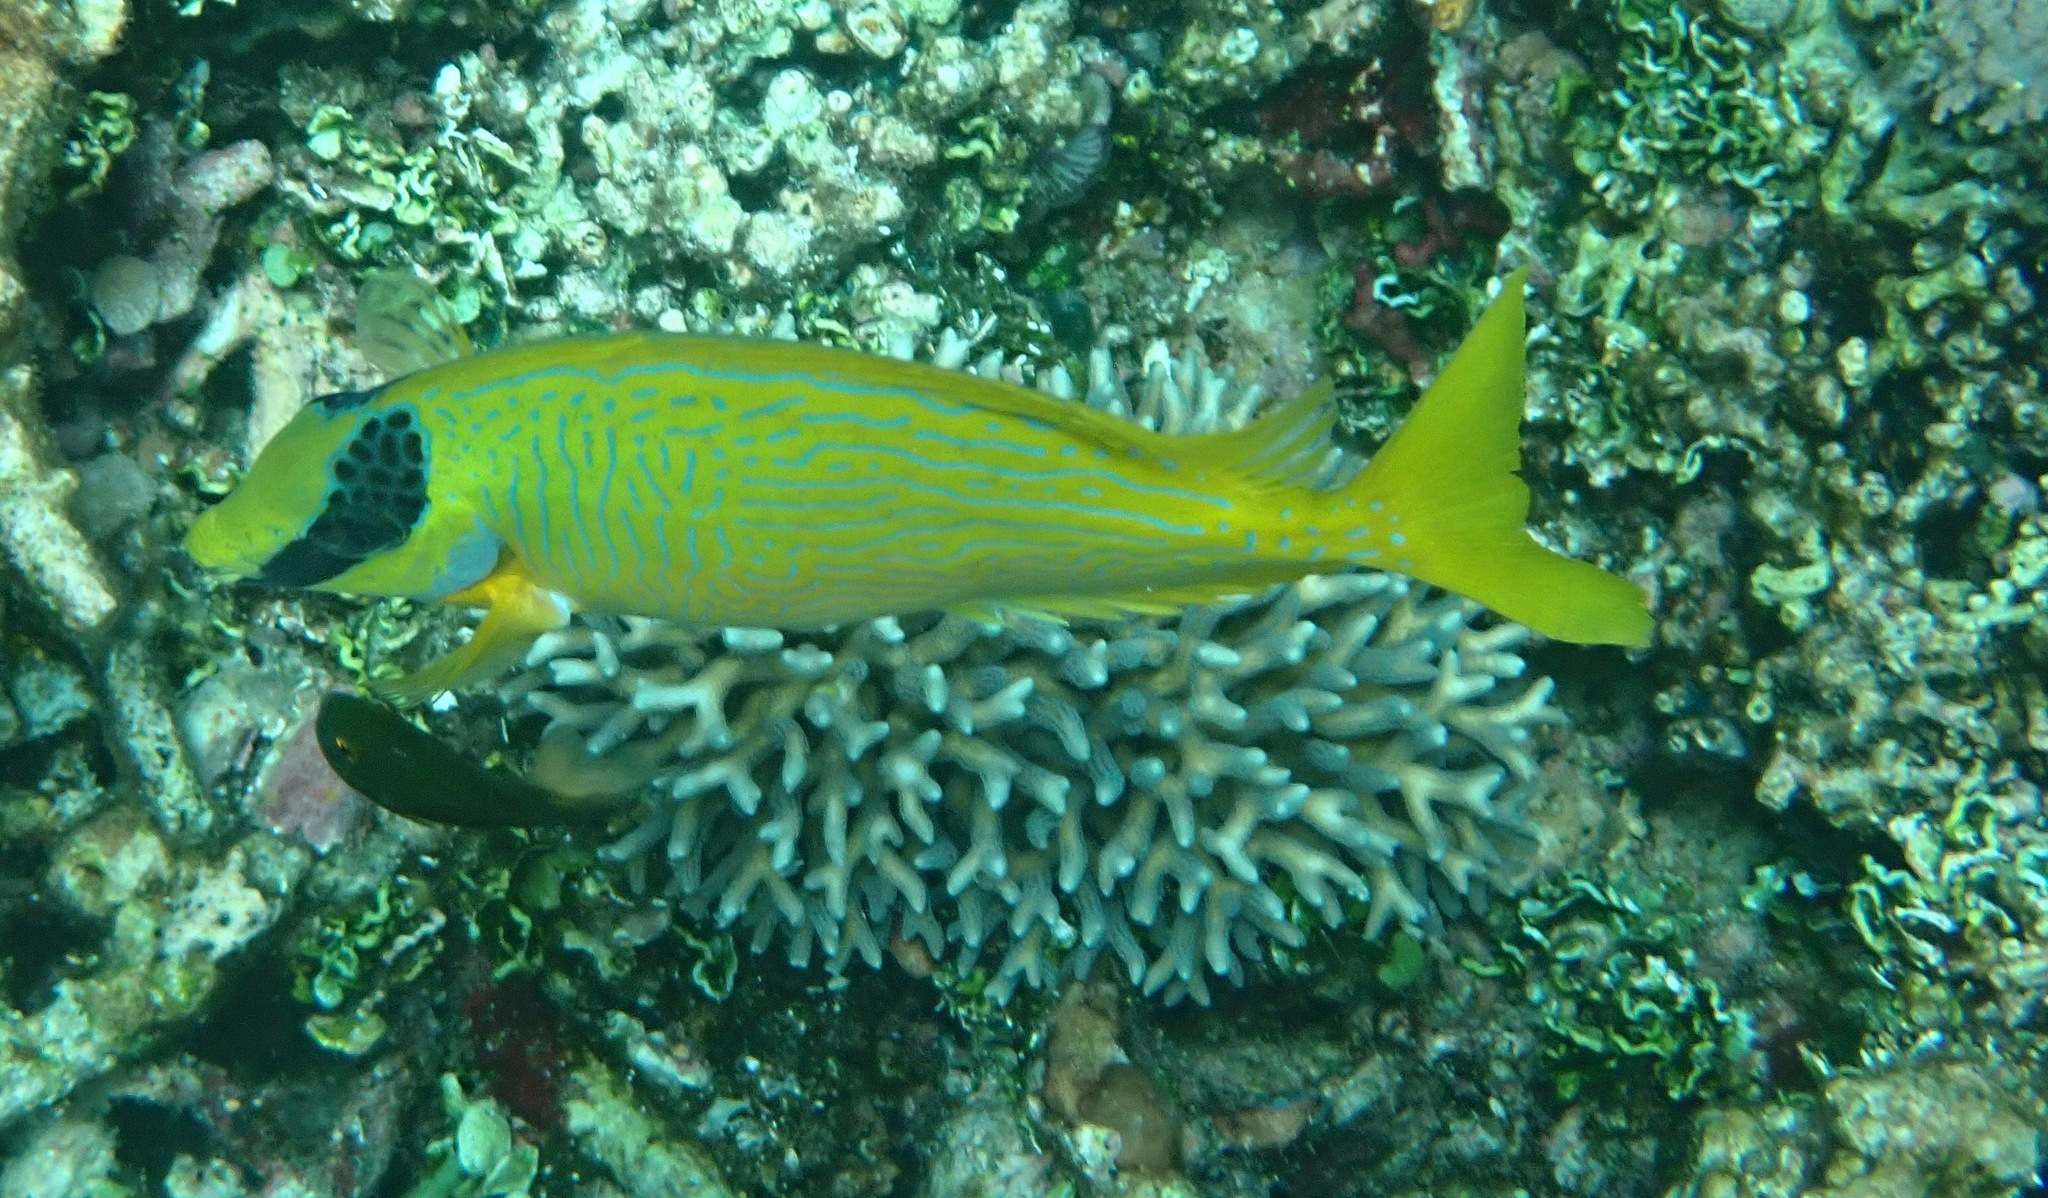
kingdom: Animalia
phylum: Chordata
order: Perciformes
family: Siganidae
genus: Siganus
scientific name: Siganus puellus
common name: Masked rabbitfish
